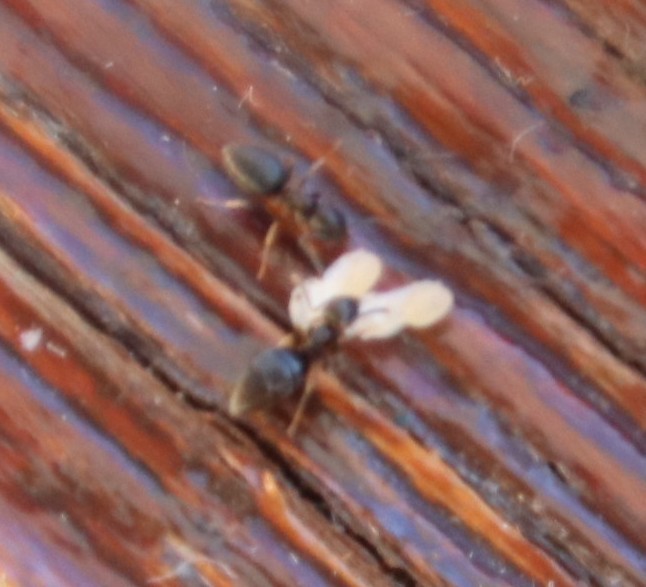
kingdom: Animalia
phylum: Arthropoda
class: Insecta
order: Hymenoptera
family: Formicidae
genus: Tapinoma
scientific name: Tapinoma pallipes
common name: Ant
